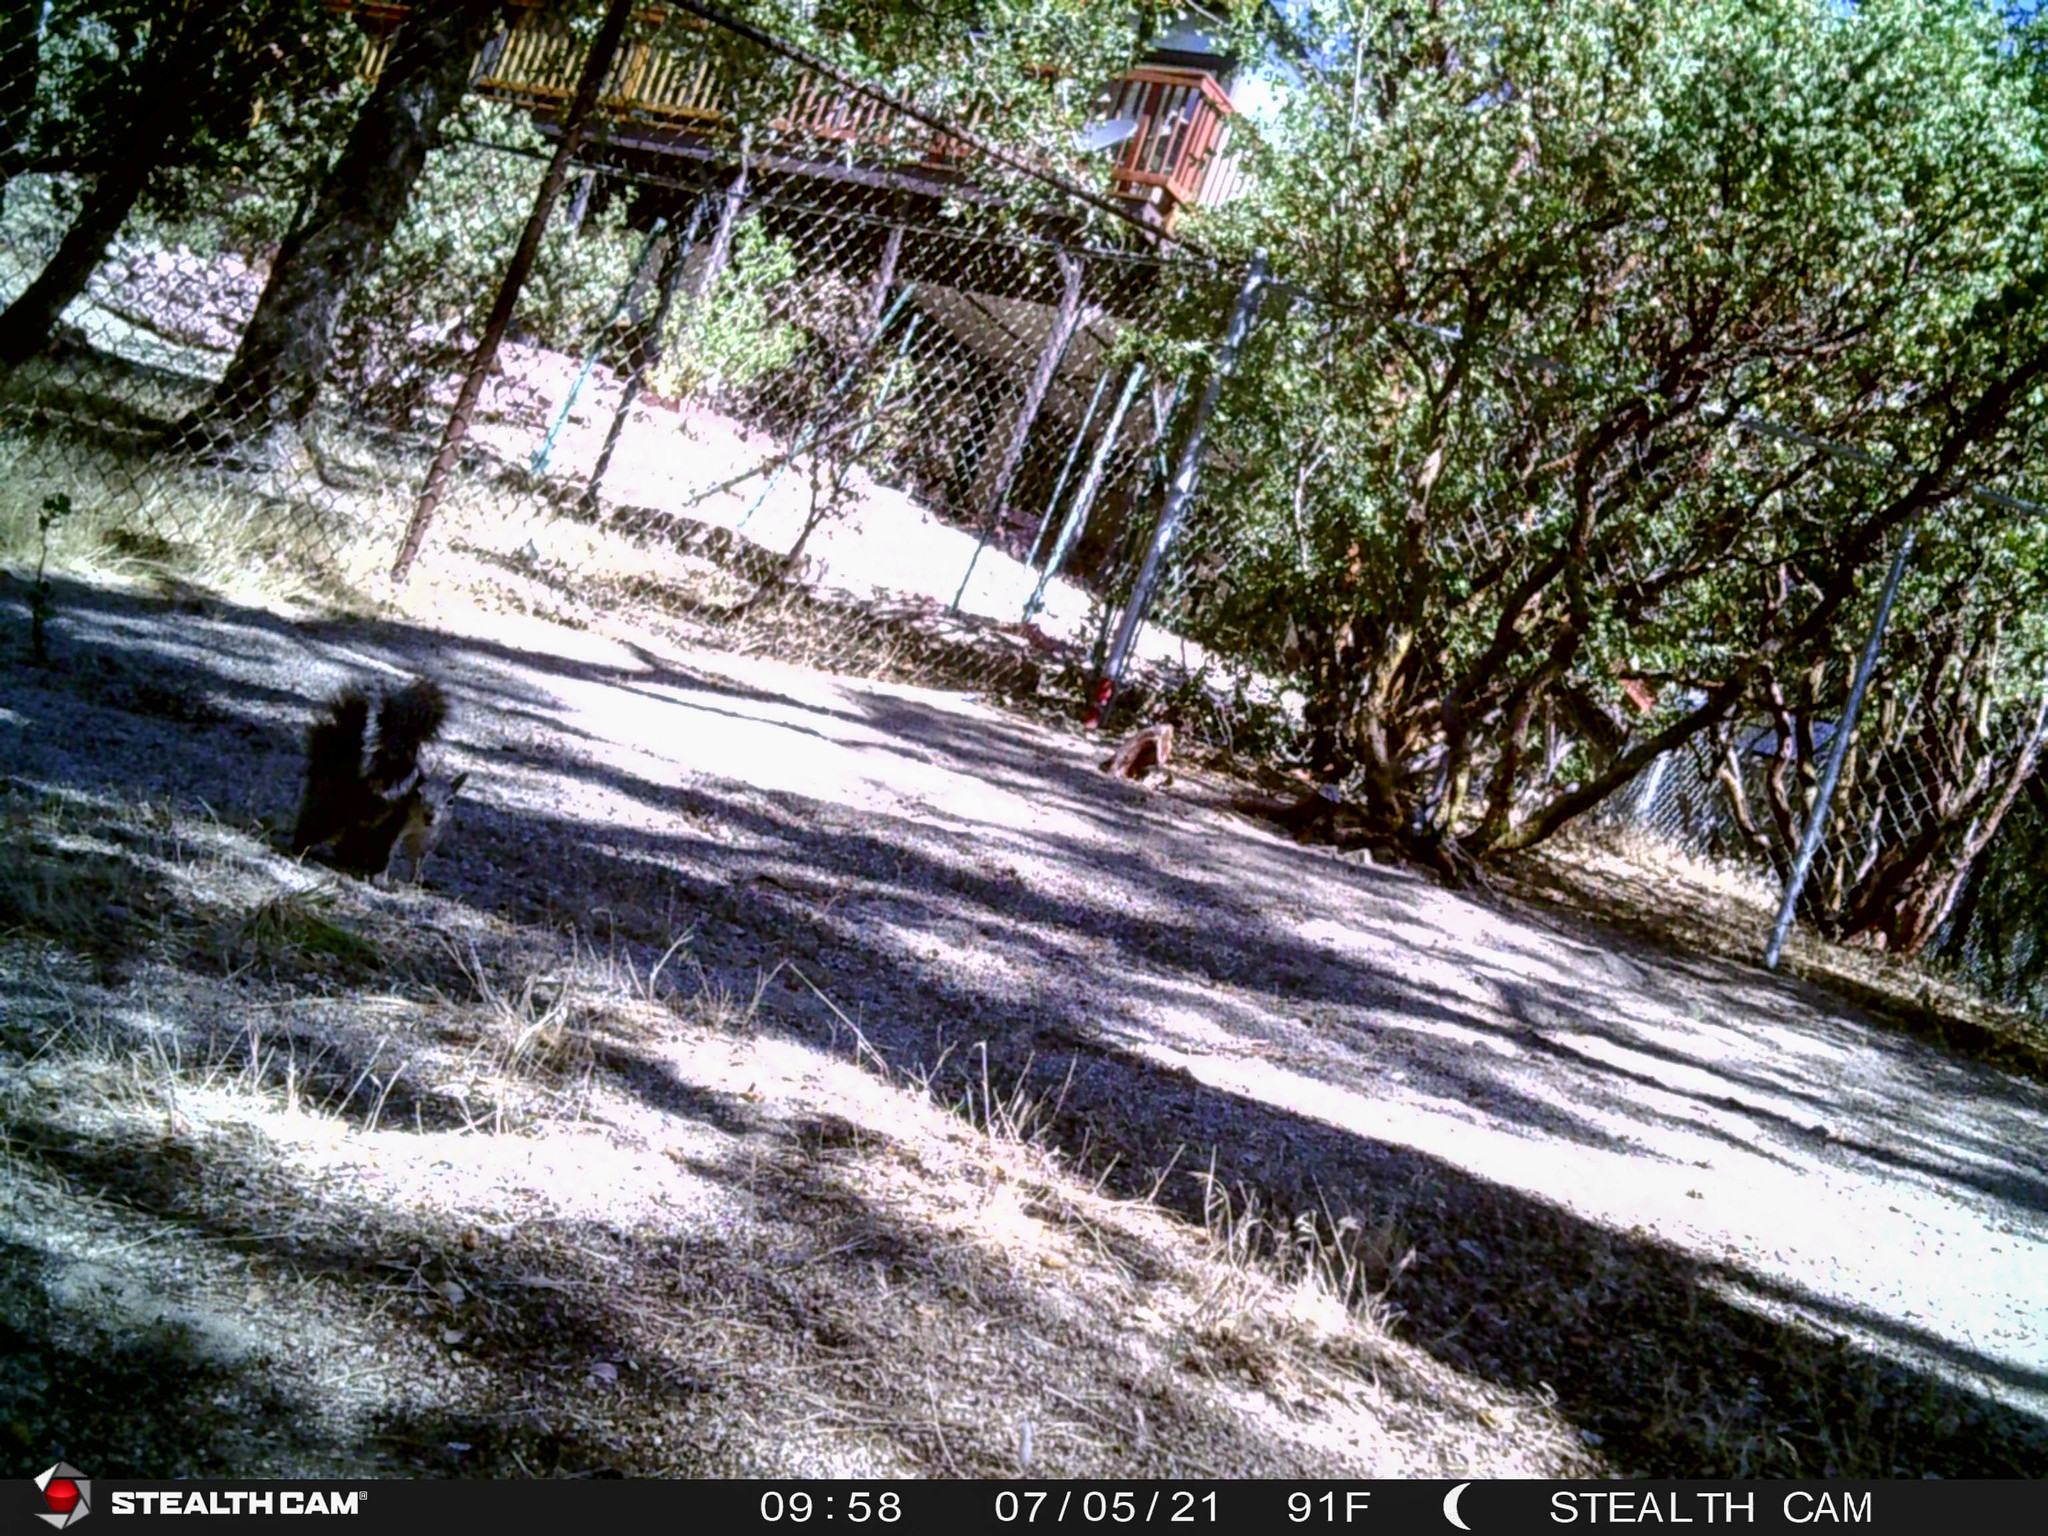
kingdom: Animalia
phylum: Chordata
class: Mammalia
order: Rodentia
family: Sciuridae
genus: Sciurus
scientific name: Sciurus griseus
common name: Western gray squirrel
